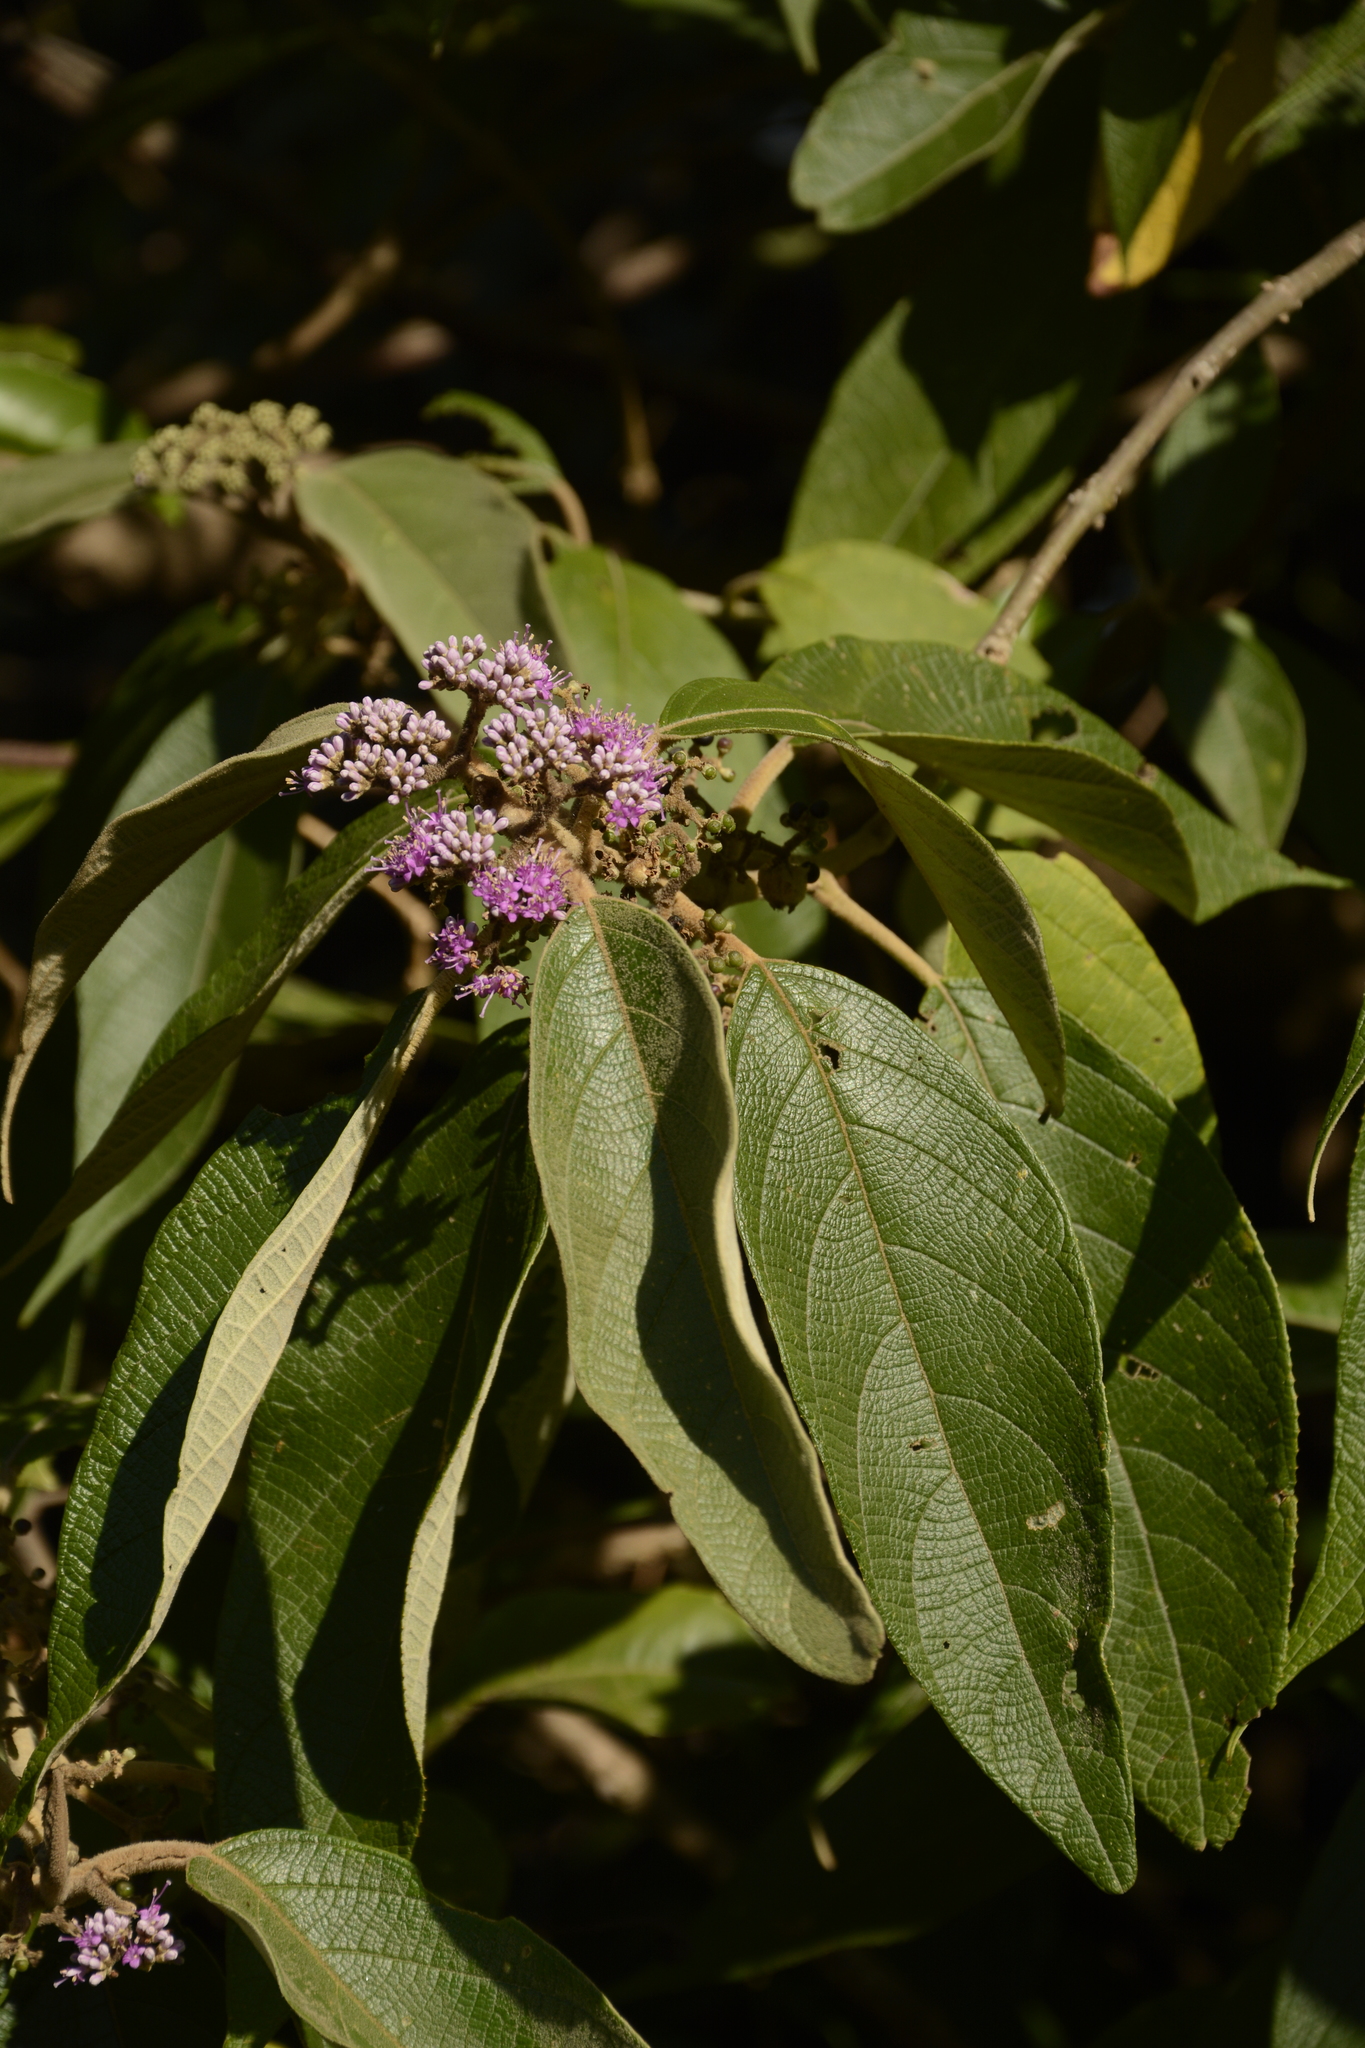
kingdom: Plantae
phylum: Tracheophyta
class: Magnoliopsida
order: Lamiales
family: Lamiaceae
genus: Callicarpa
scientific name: Callicarpa tomentosa
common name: Great woolly malayan-lilac
